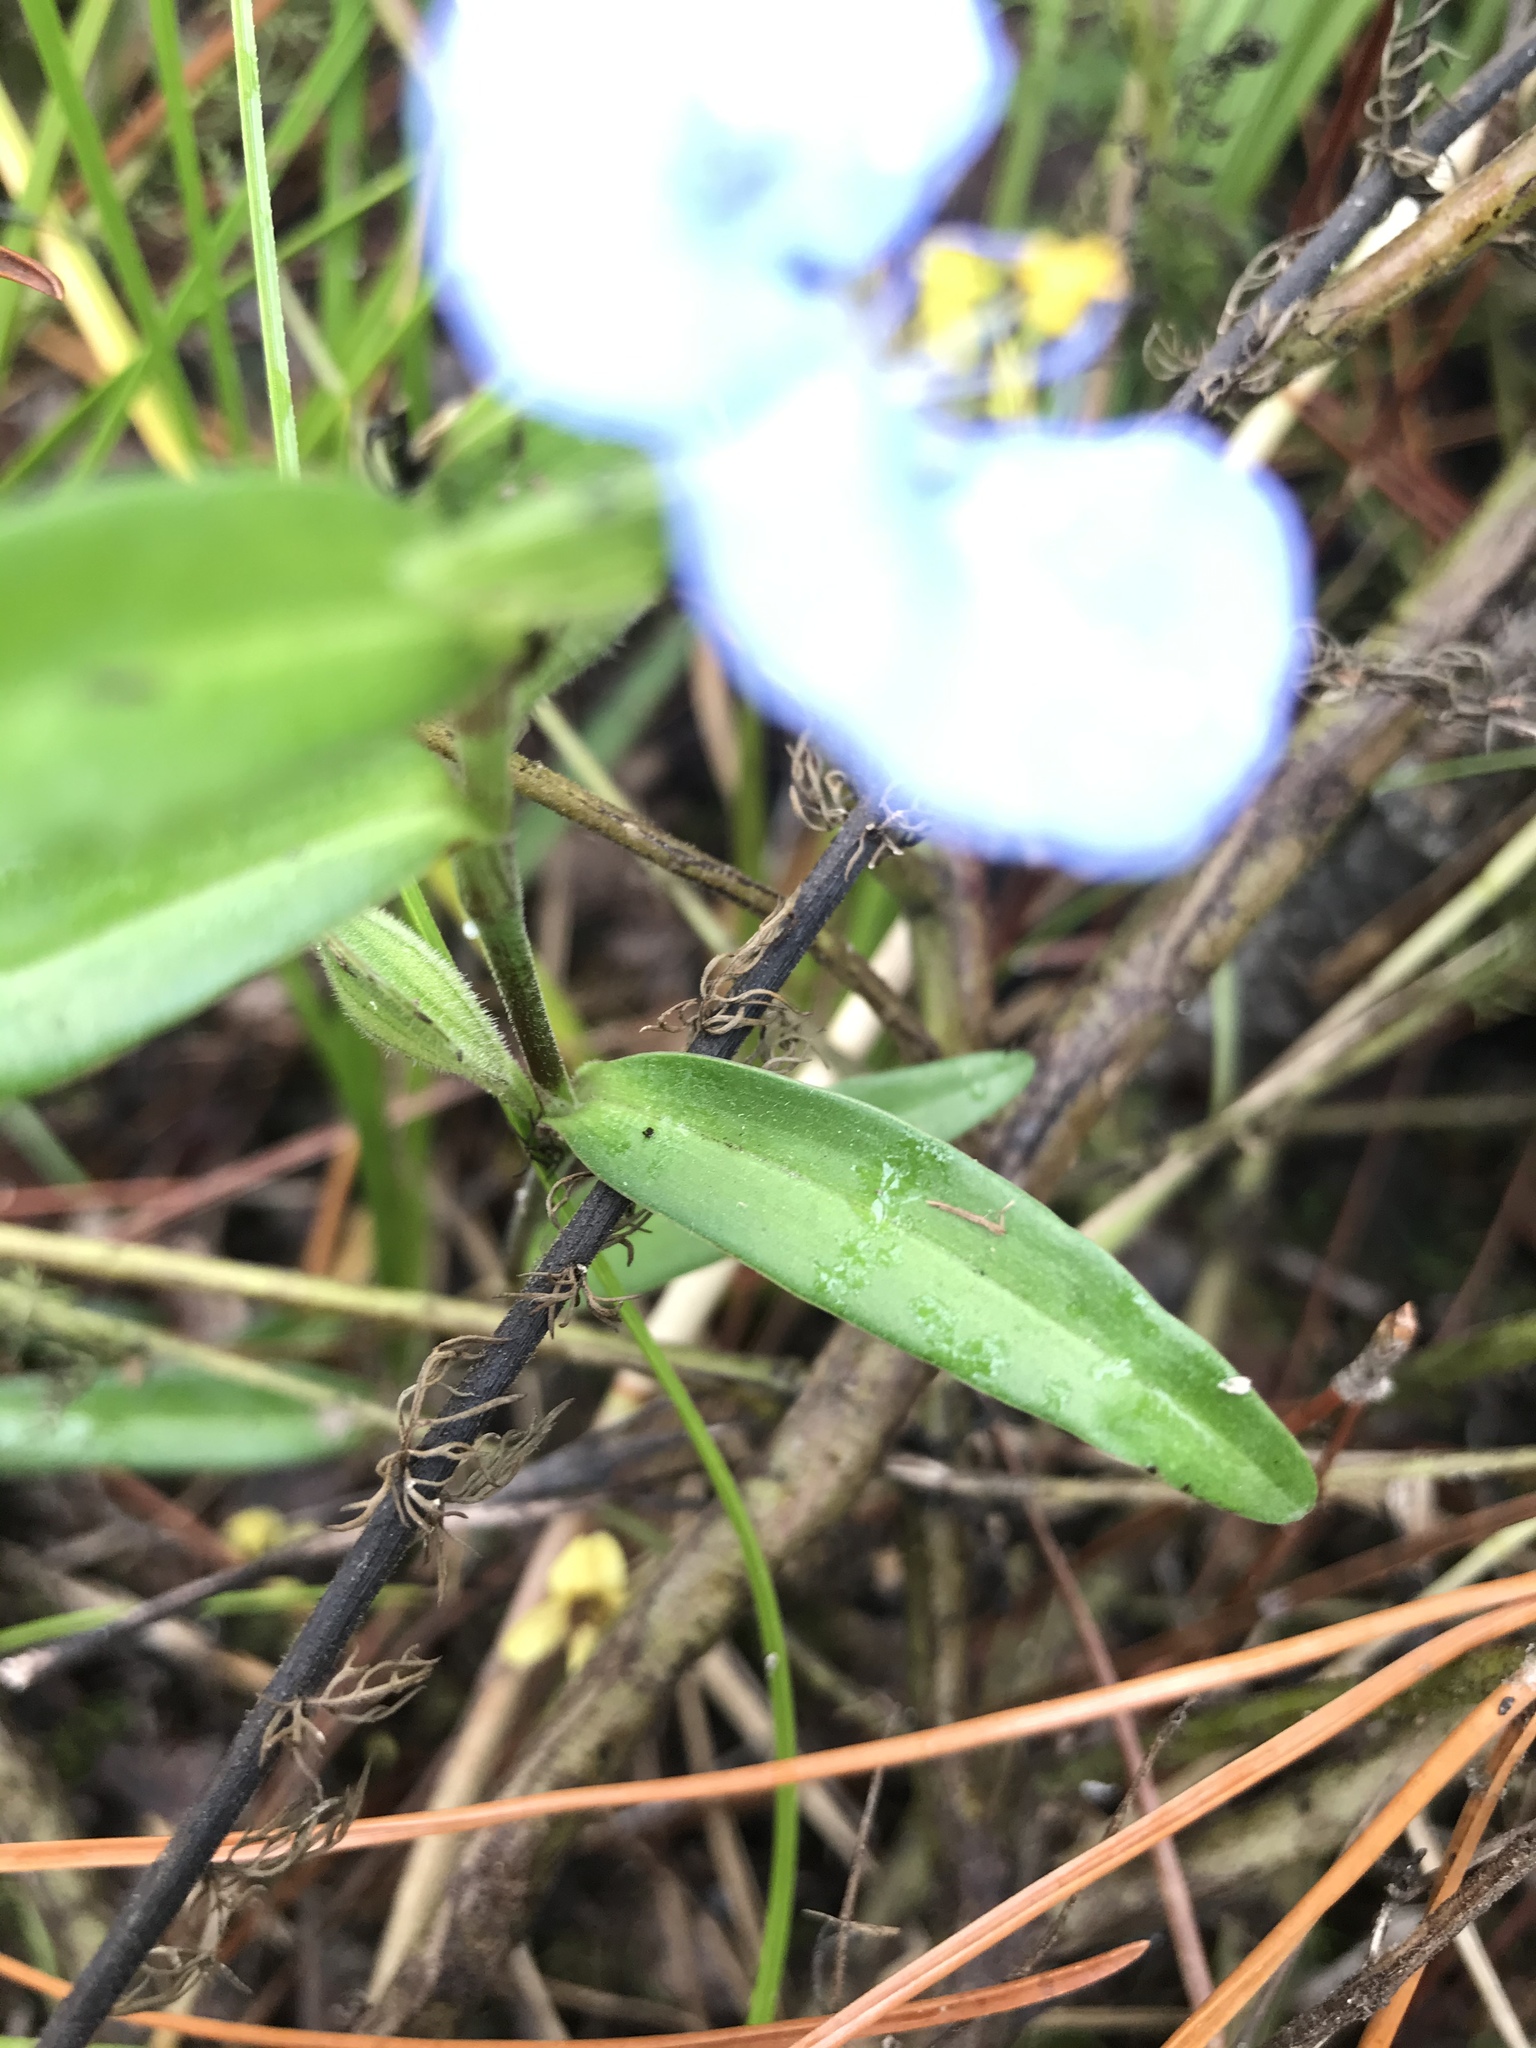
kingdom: Plantae
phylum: Tracheophyta
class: Liliopsida
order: Commelinales
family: Commelinaceae
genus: Commelina
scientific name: Commelina erecta
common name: Blousel blommetjie
